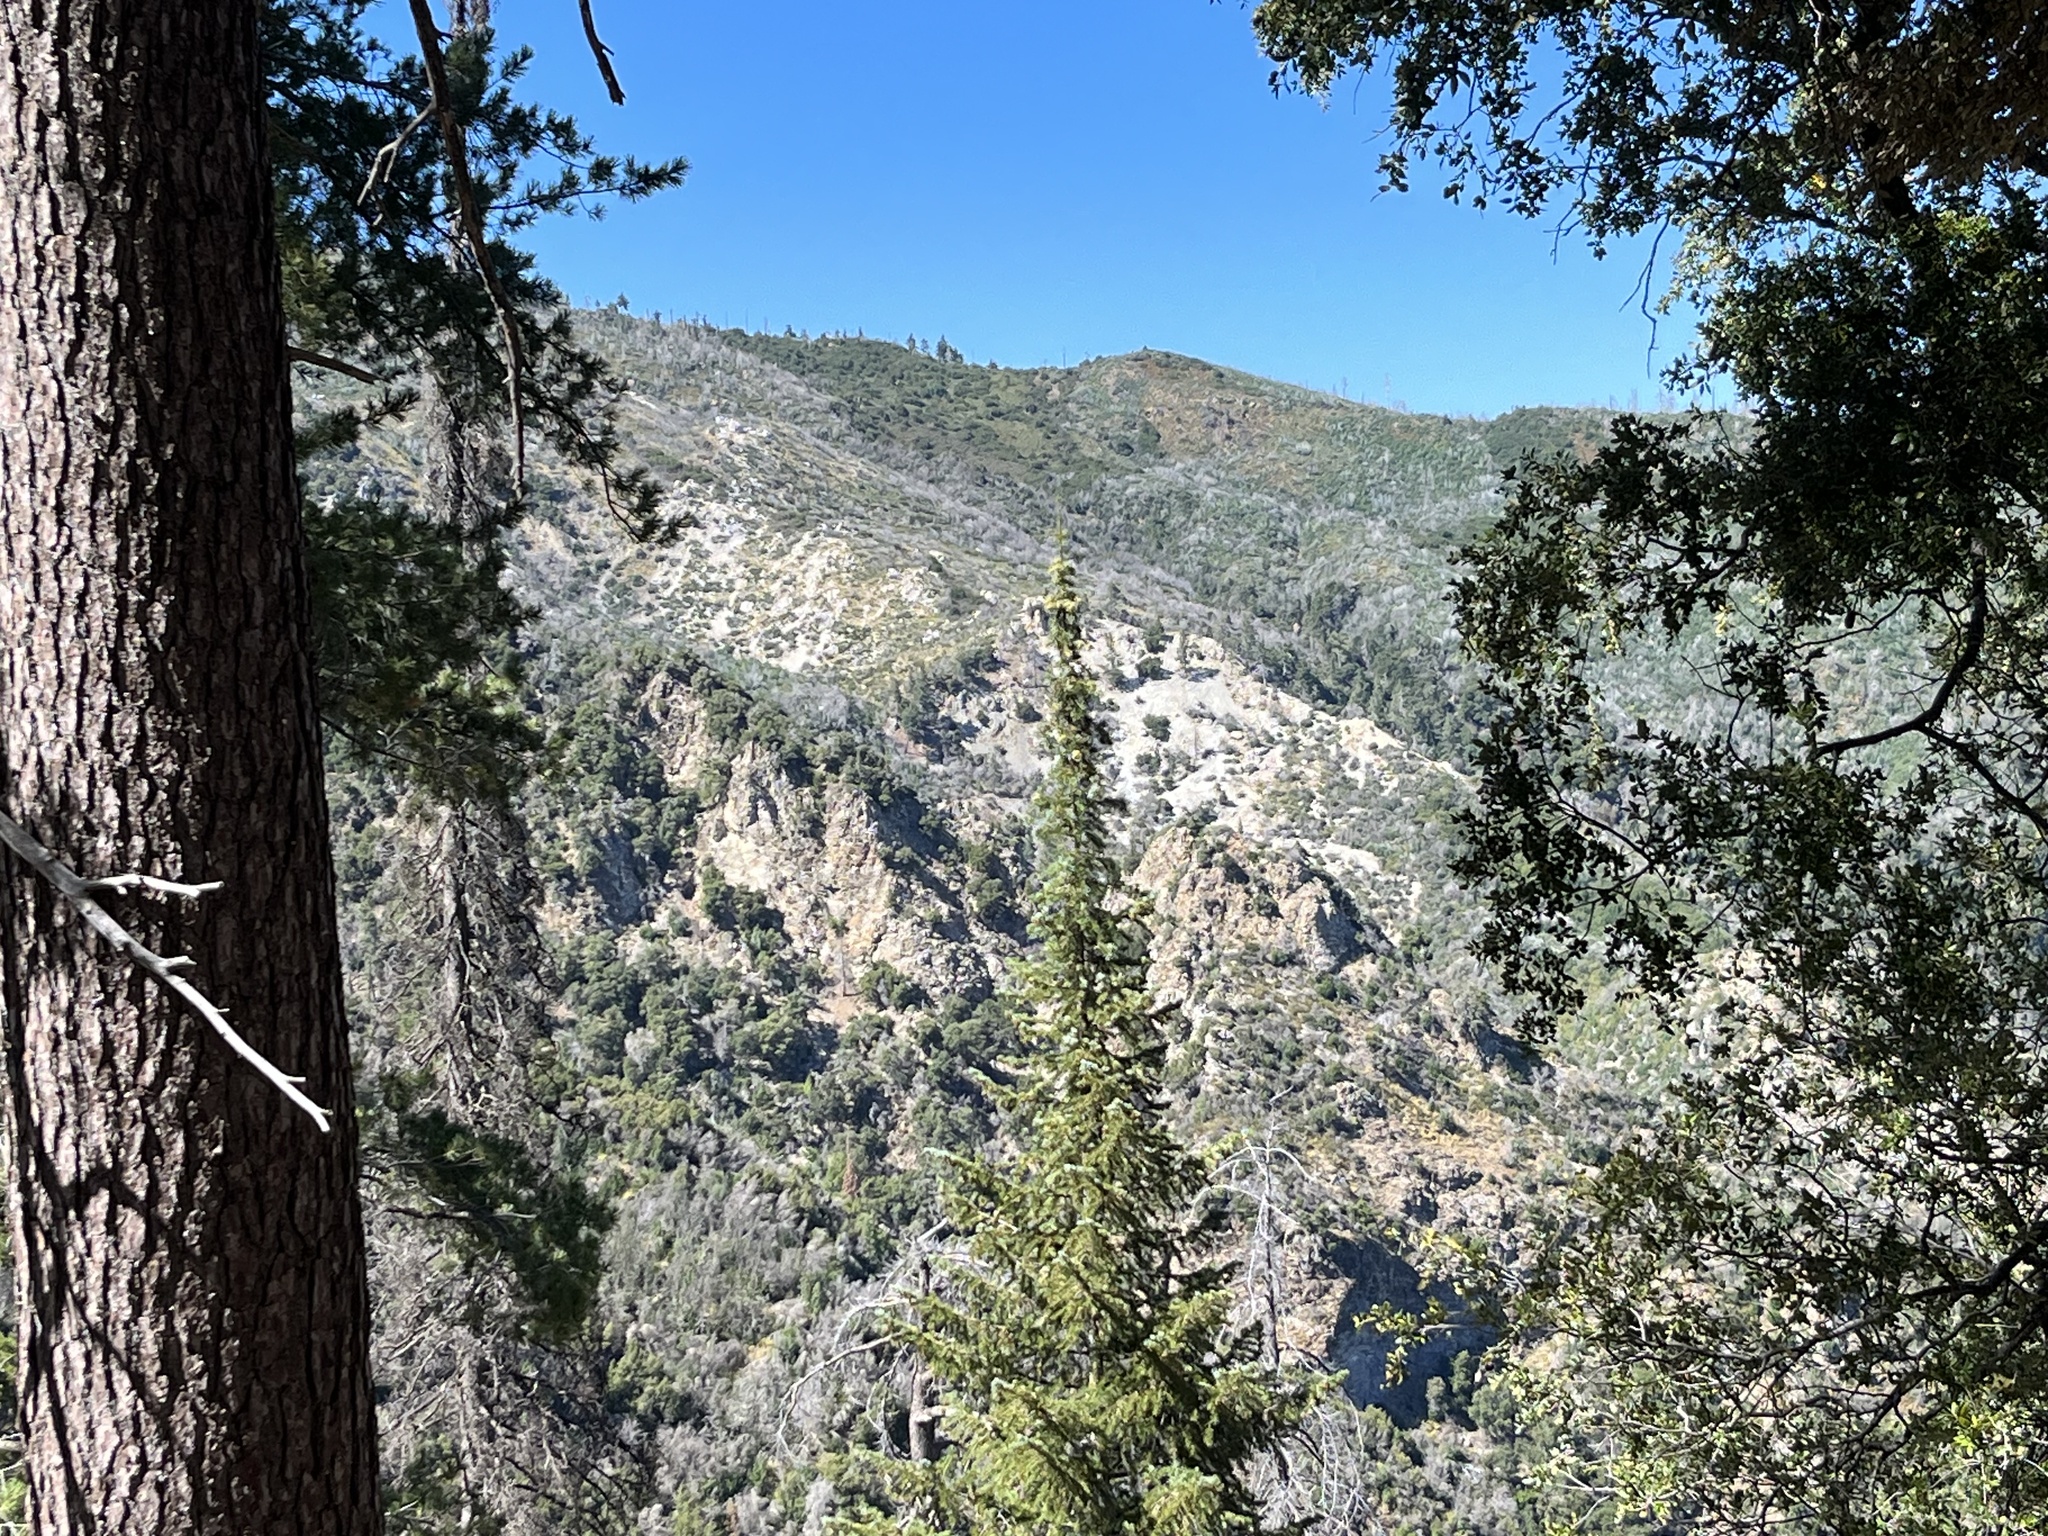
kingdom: Plantae
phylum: Tracheophyta
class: Pinopsida
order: Pinales
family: Pinaceae
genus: Abies
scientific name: Abies bracteata
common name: Bristlecone fir
